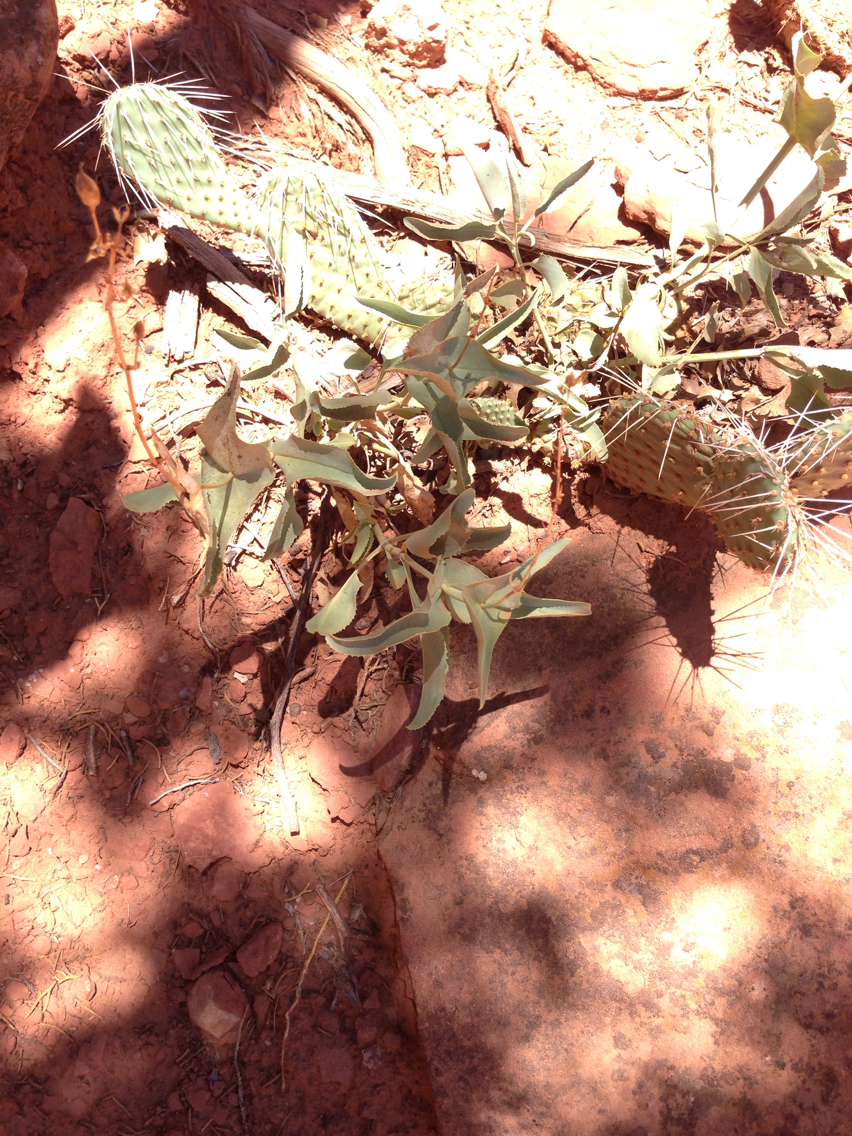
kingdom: Plantae
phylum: Tracheophyta
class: Magnoliopsida
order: Lamiales
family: Plantaginaceae
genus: Penstemon
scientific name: Penstemon palmeri
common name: Palmer penstemon
